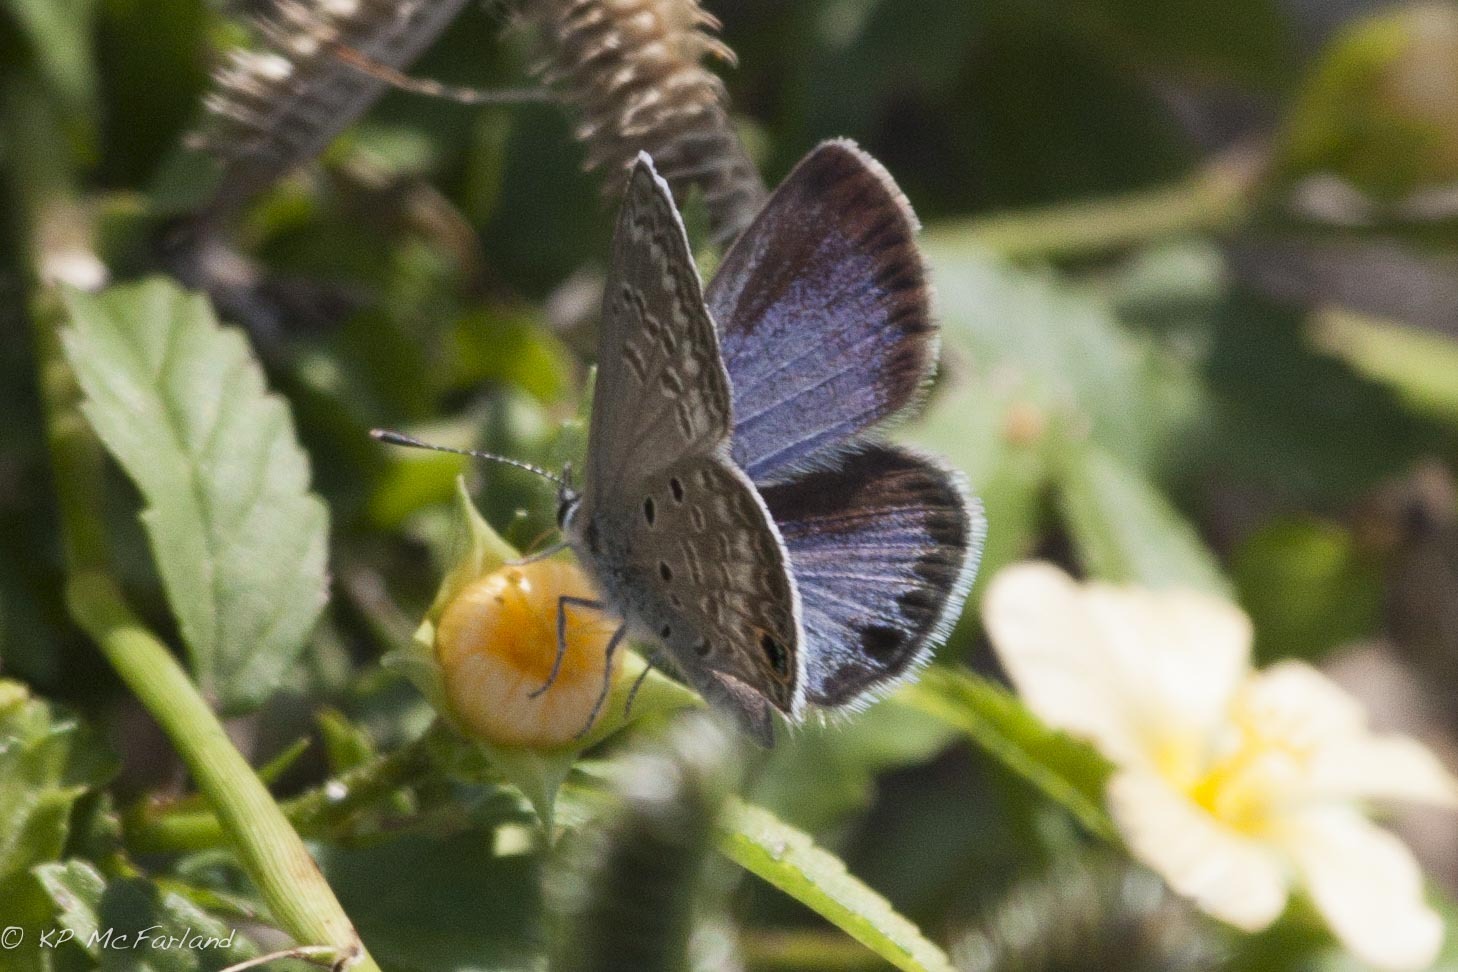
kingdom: Animalia
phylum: Arthropoda
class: Insecta
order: Lepidoptera
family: Lycaenidae
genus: Hemiargus
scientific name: Hemiargus ceraunus
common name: Ceraunus blue
